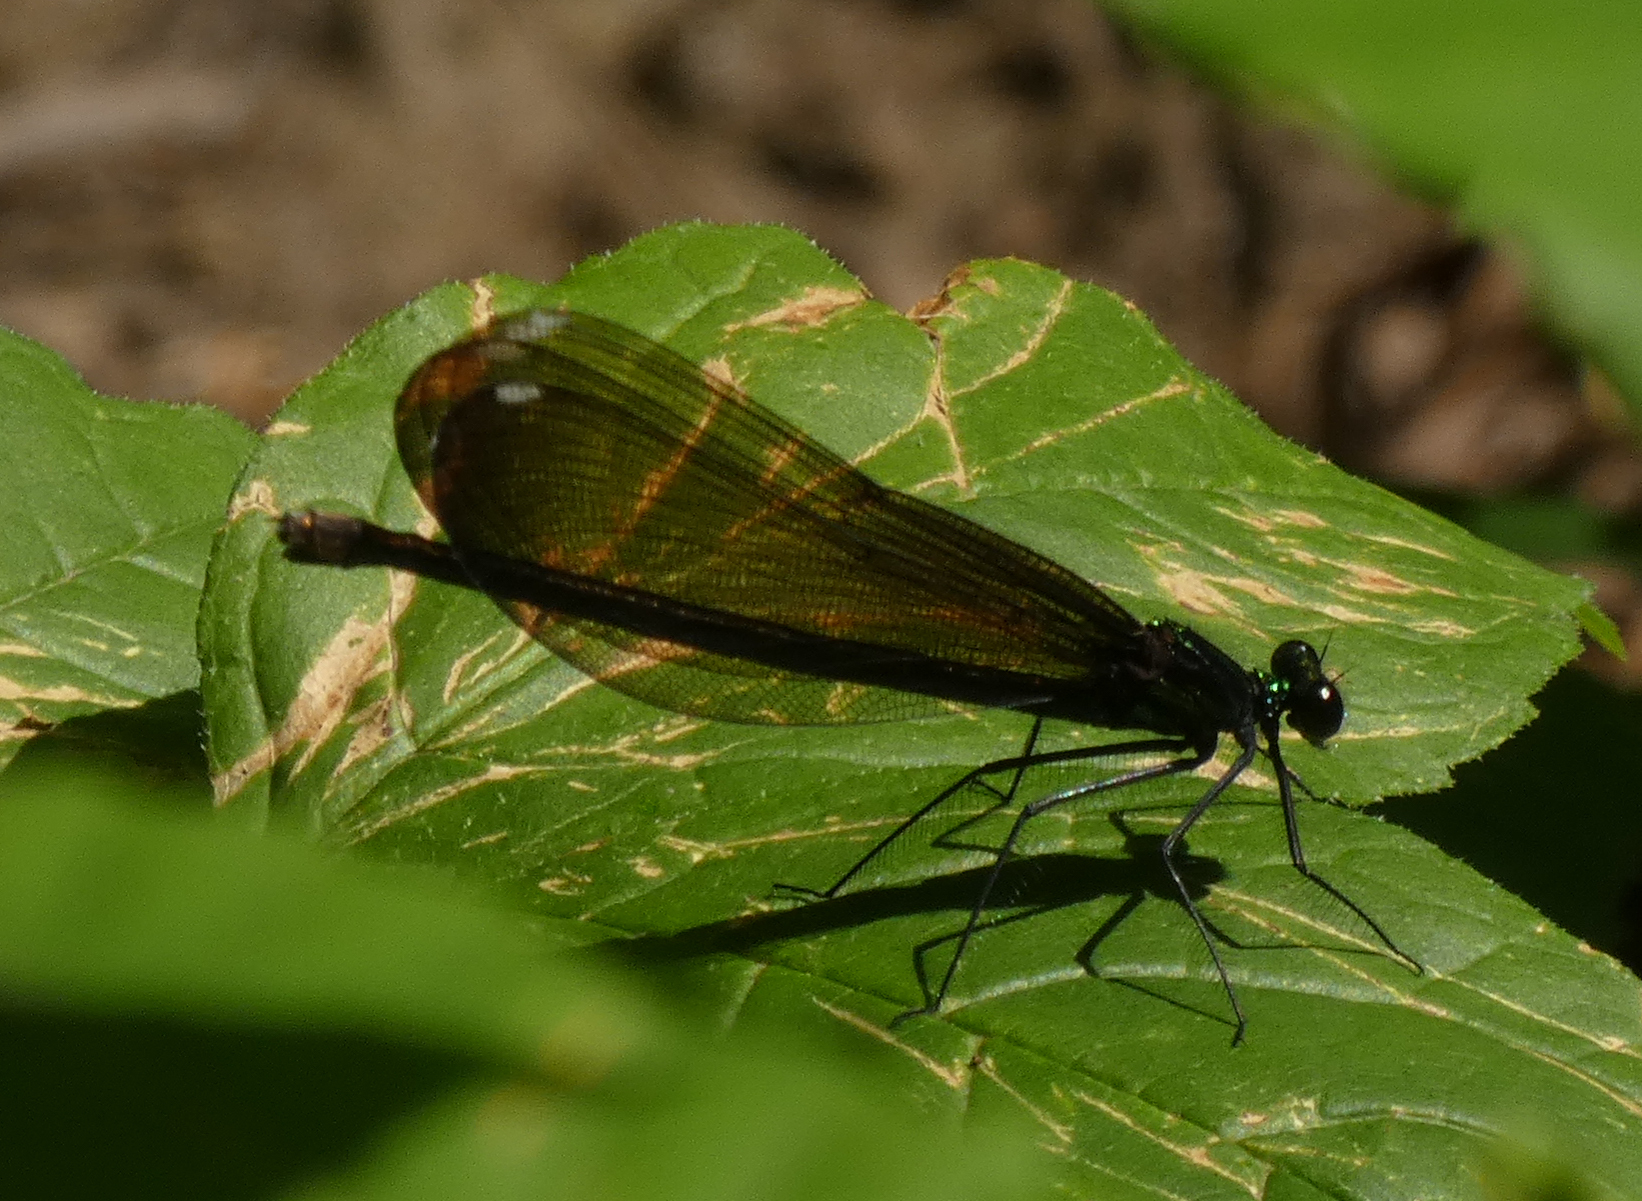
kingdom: Animalia
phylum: Arthropoda
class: Insecta
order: Odonata
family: Calopterygidae
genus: Calopteryx
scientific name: Calopteryx maculata
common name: Ebony jewelwing
